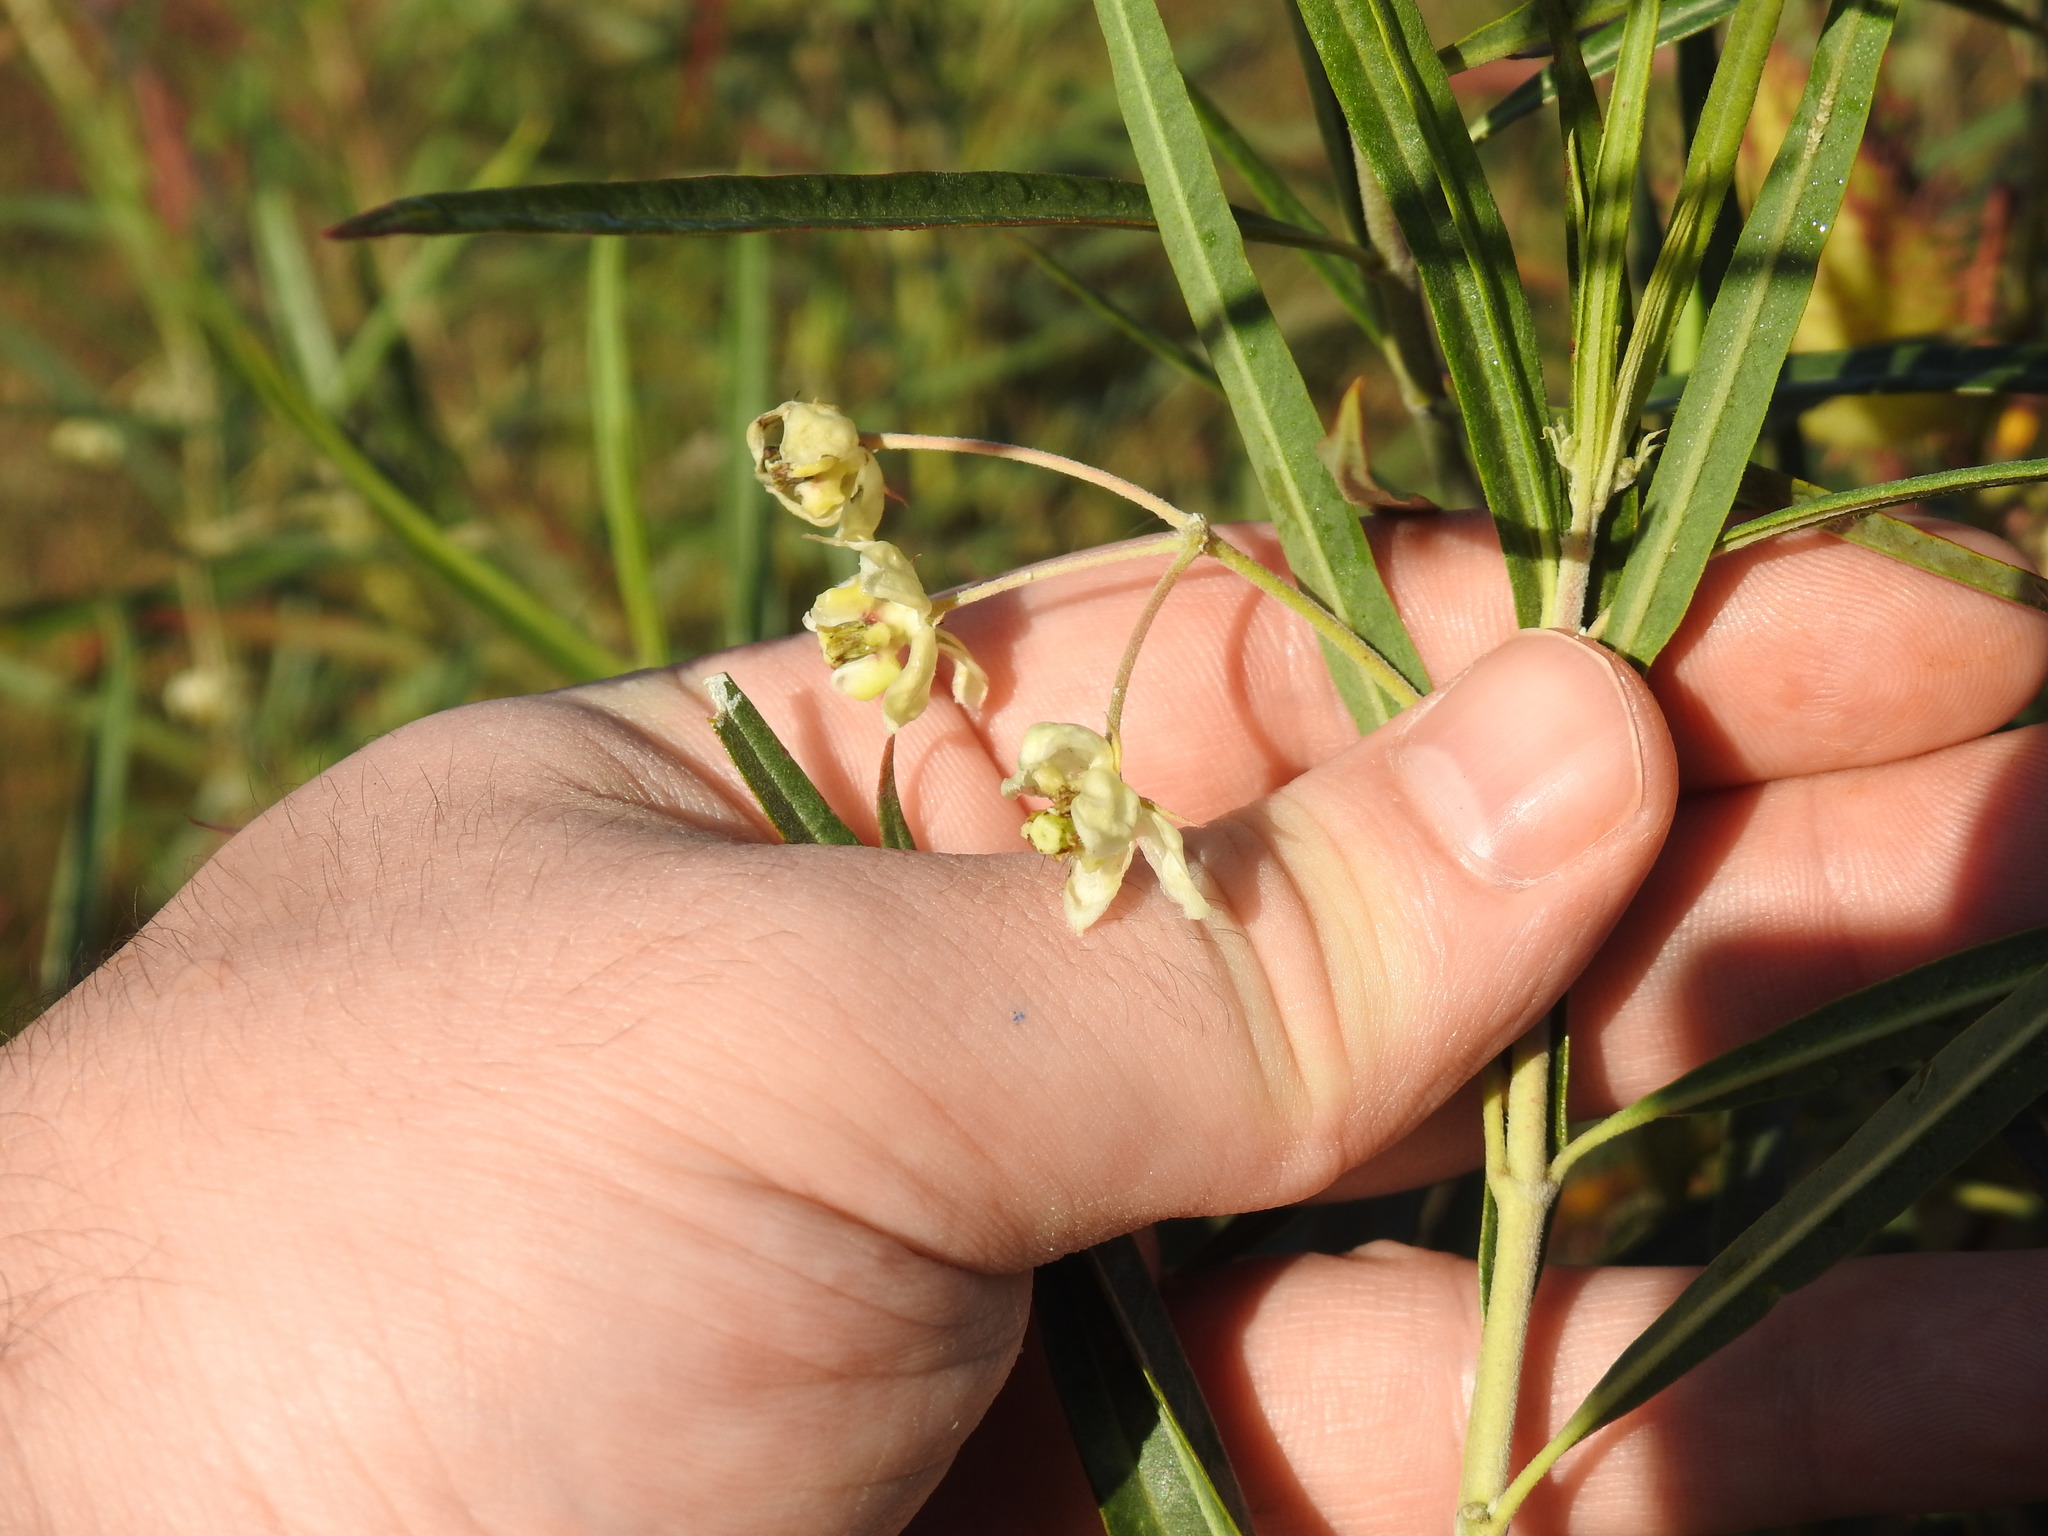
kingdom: Plantae
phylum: Tracheophyta
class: Magnoliopsida
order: Gentianales
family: Apocynaceae
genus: Gomphocarpus
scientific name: Gomphocarpus fruticosus
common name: Milkweed
